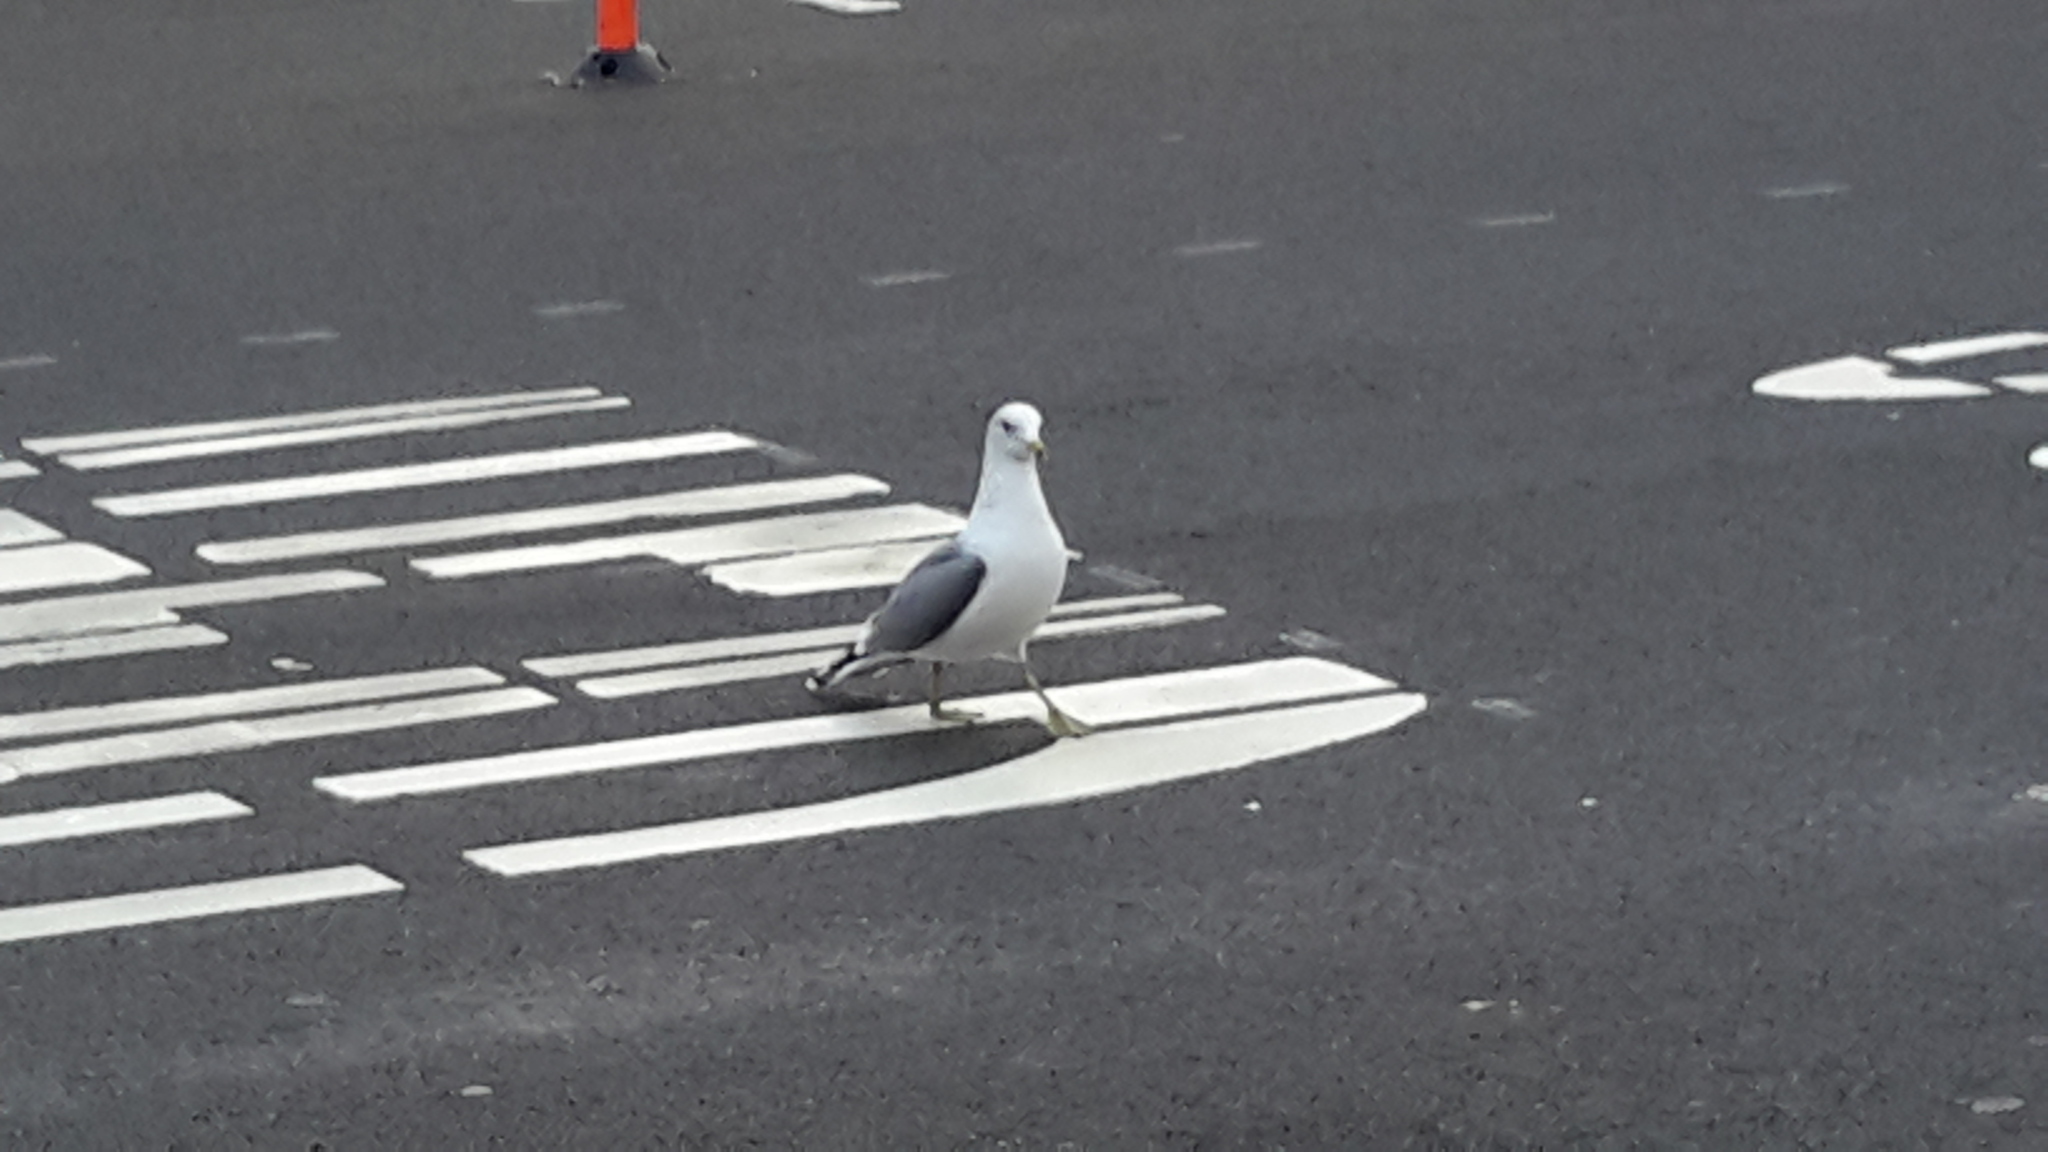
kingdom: Animalia
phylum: Chordata
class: Aves
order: Charadriiformes
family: Laridae
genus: Larus
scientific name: Larus californicus
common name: California gull
